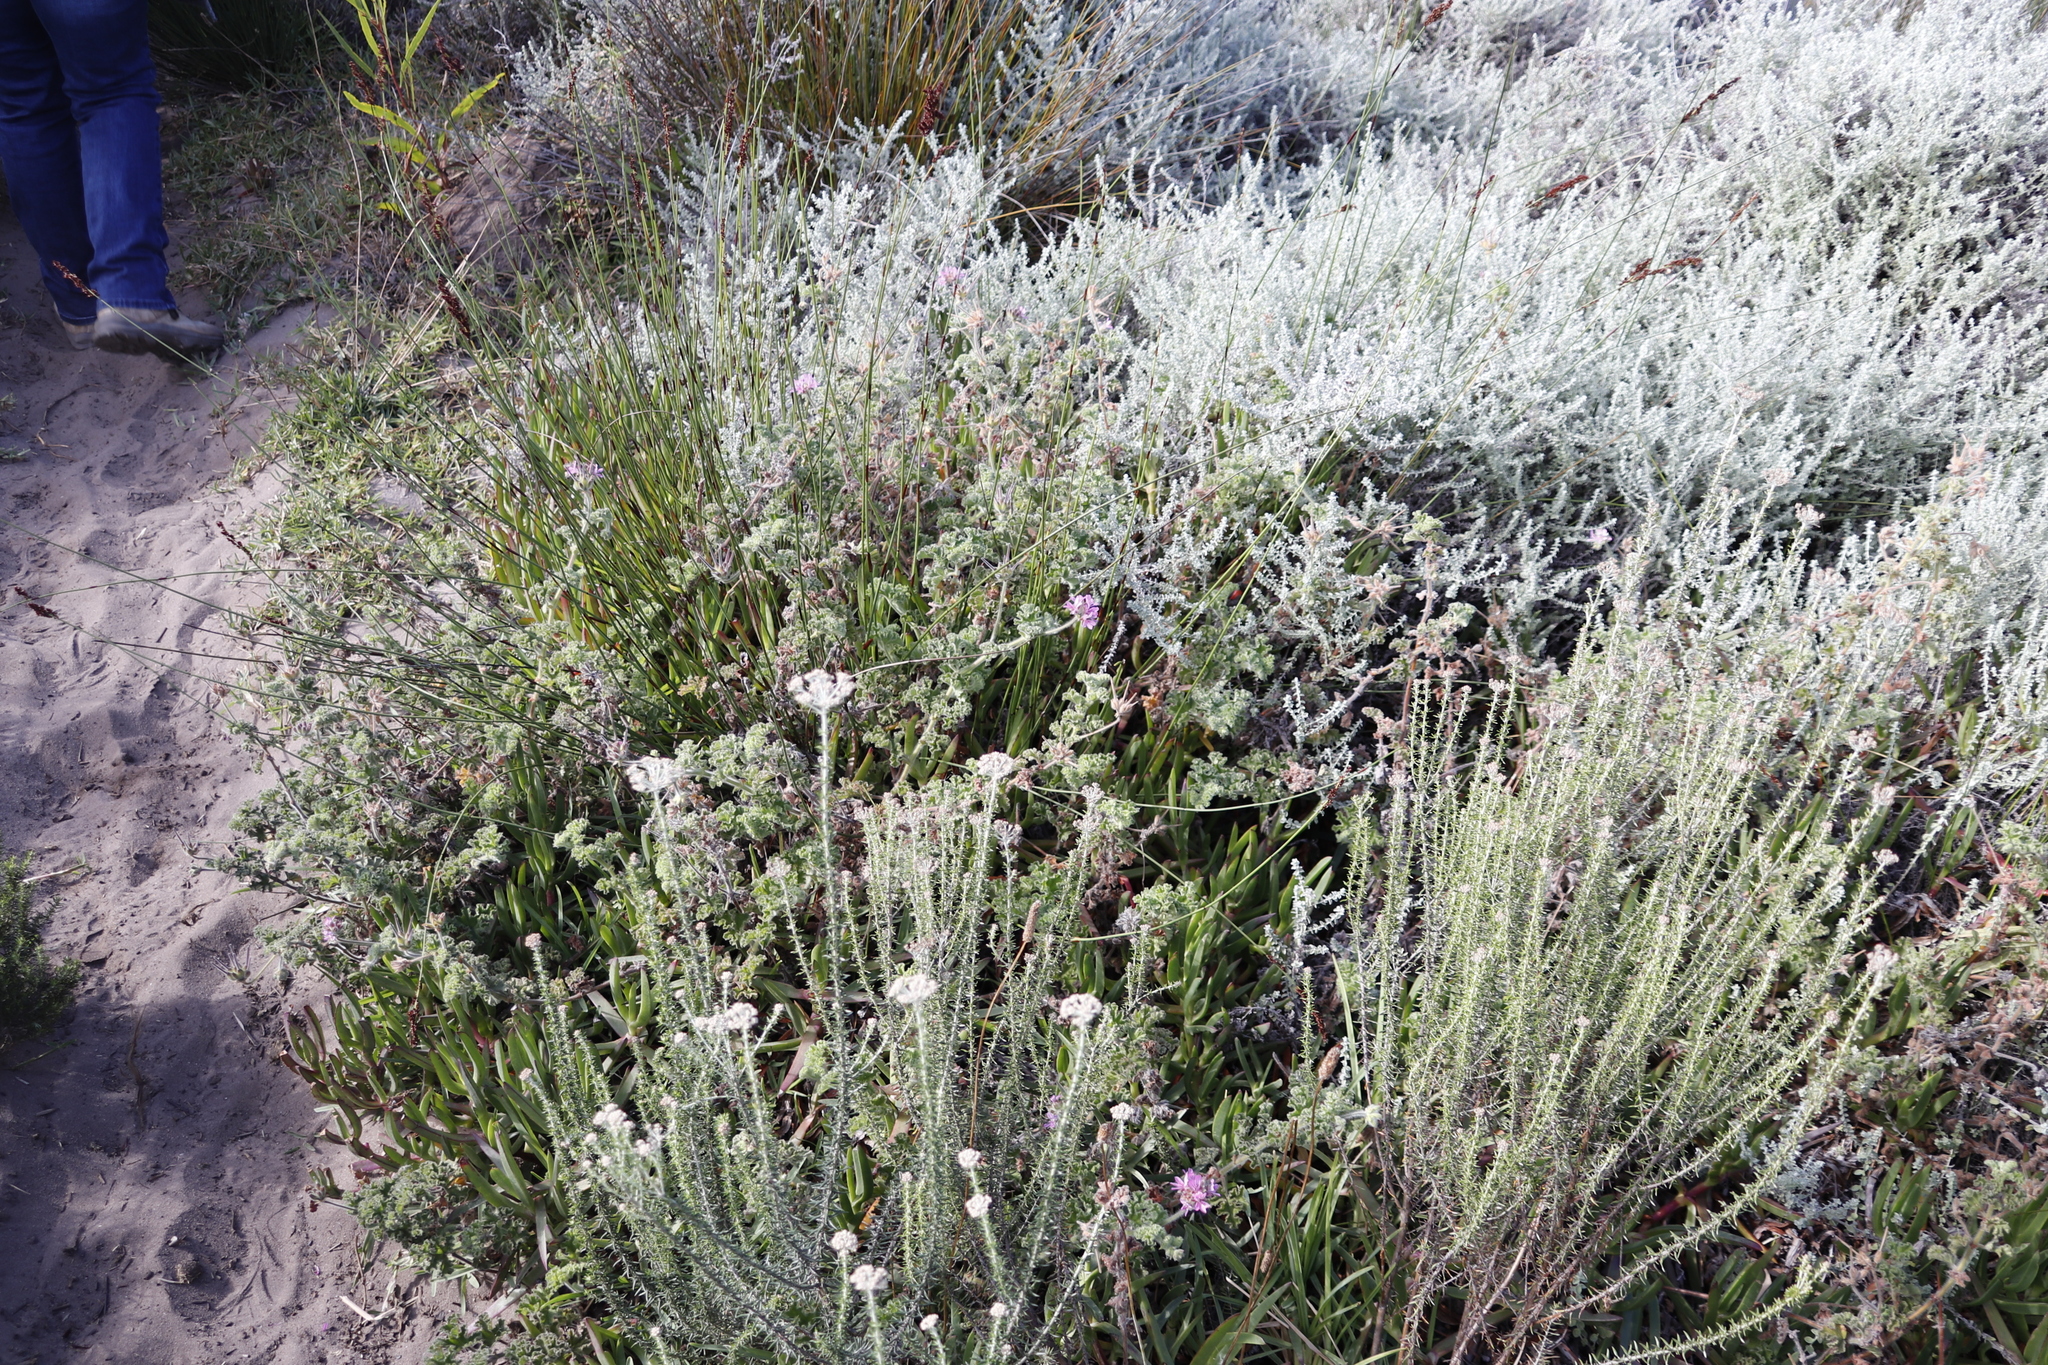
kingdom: Plantae
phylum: Tracheophyta
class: Magnoliopsida
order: Geraniales
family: Geraniaceae
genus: Pelargonium
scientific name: Pelargonium capitatum
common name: Rose scented geranium
